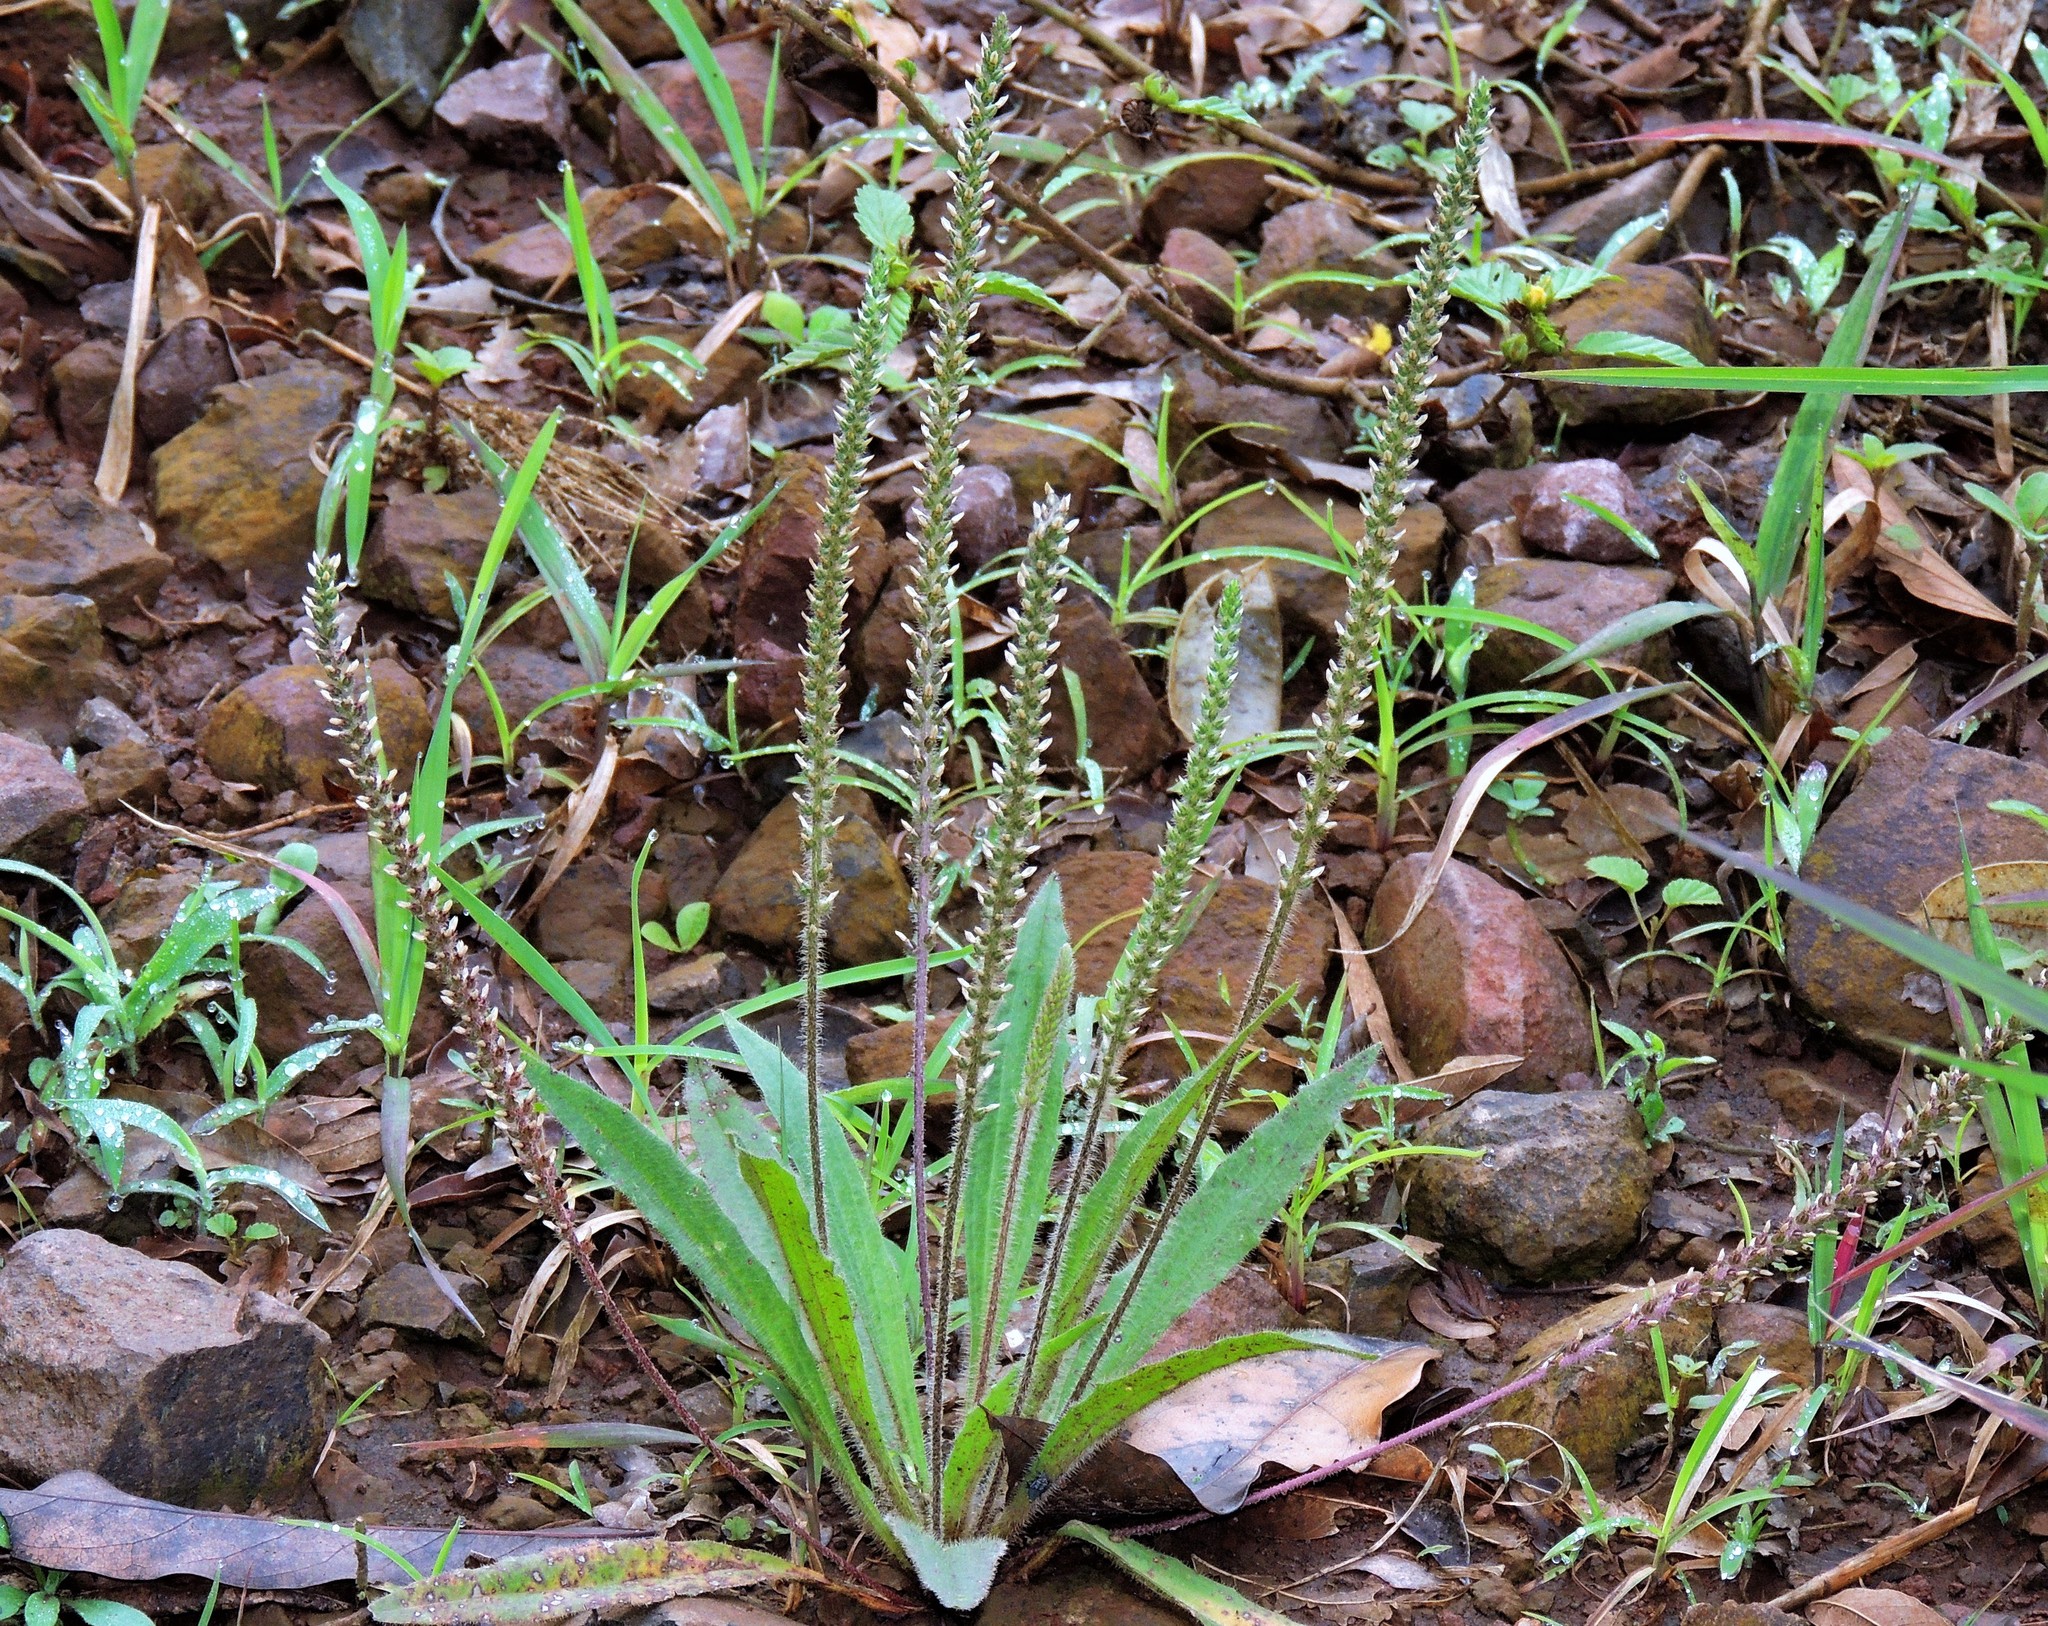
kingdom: Plantae
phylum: Tracheophyta
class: Magnoliopsida
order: Lamiales
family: Plantaginaceae
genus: Plantago
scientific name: Plantago tomentosa
